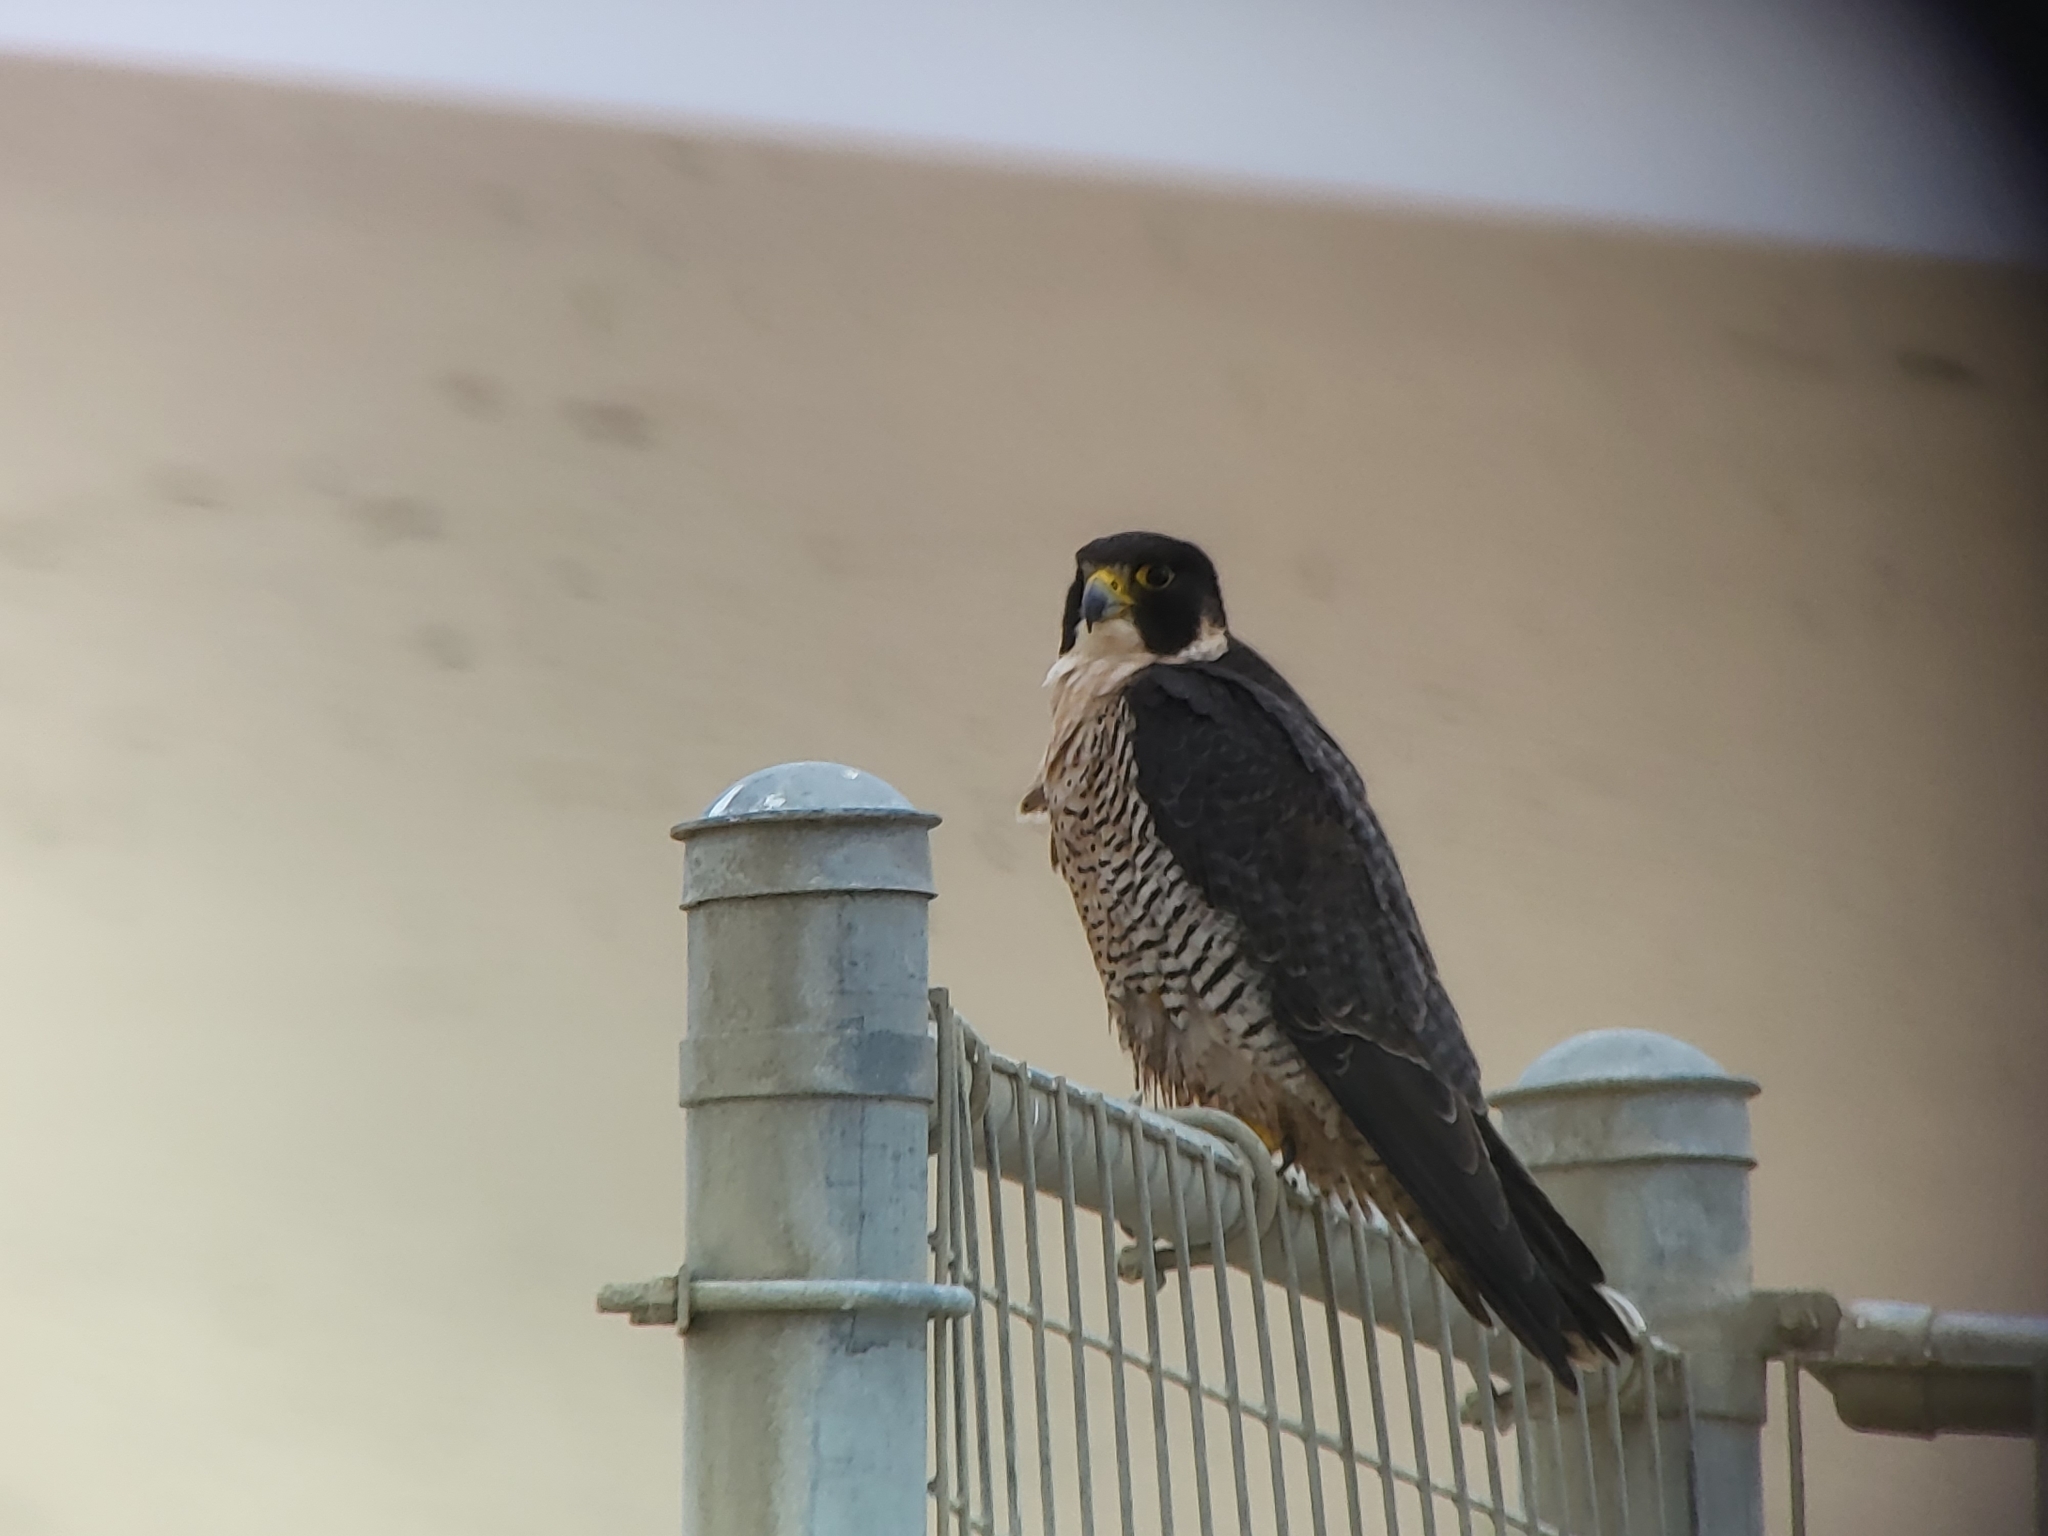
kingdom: Animalia
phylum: Chordata
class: Aves
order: Falconiformes
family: Falconidae
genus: Falco
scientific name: Falco peregrinus
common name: Peregrine falcon
